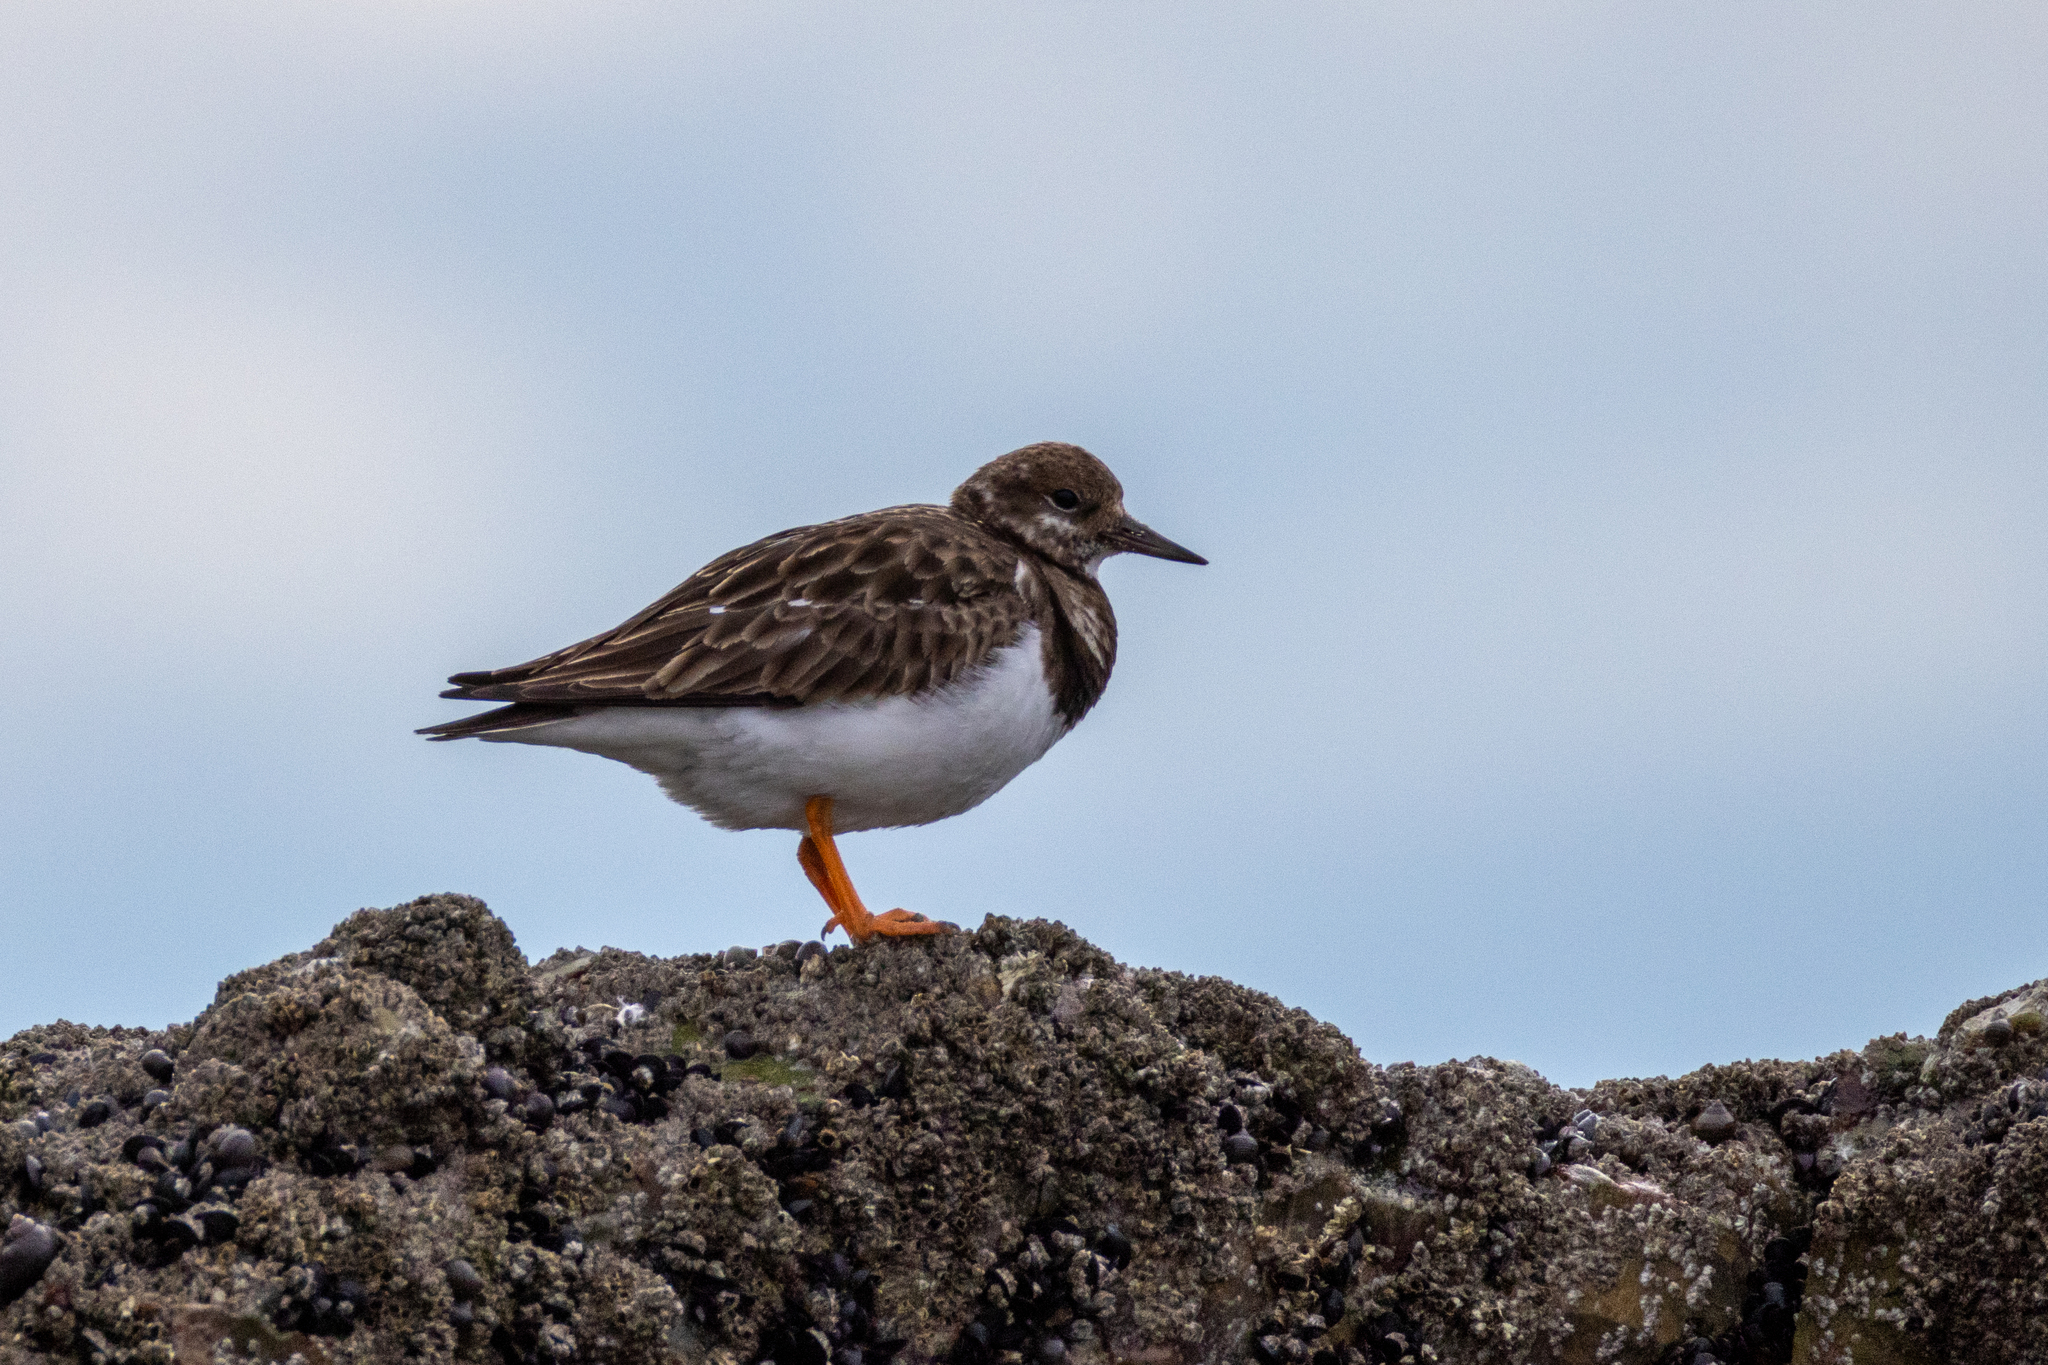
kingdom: Animalia
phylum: Chordata
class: Aves
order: Charadriiformes
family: Scolopacidae
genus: Arenaria
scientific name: Arenaria interpres
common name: Ruddy turnstone
